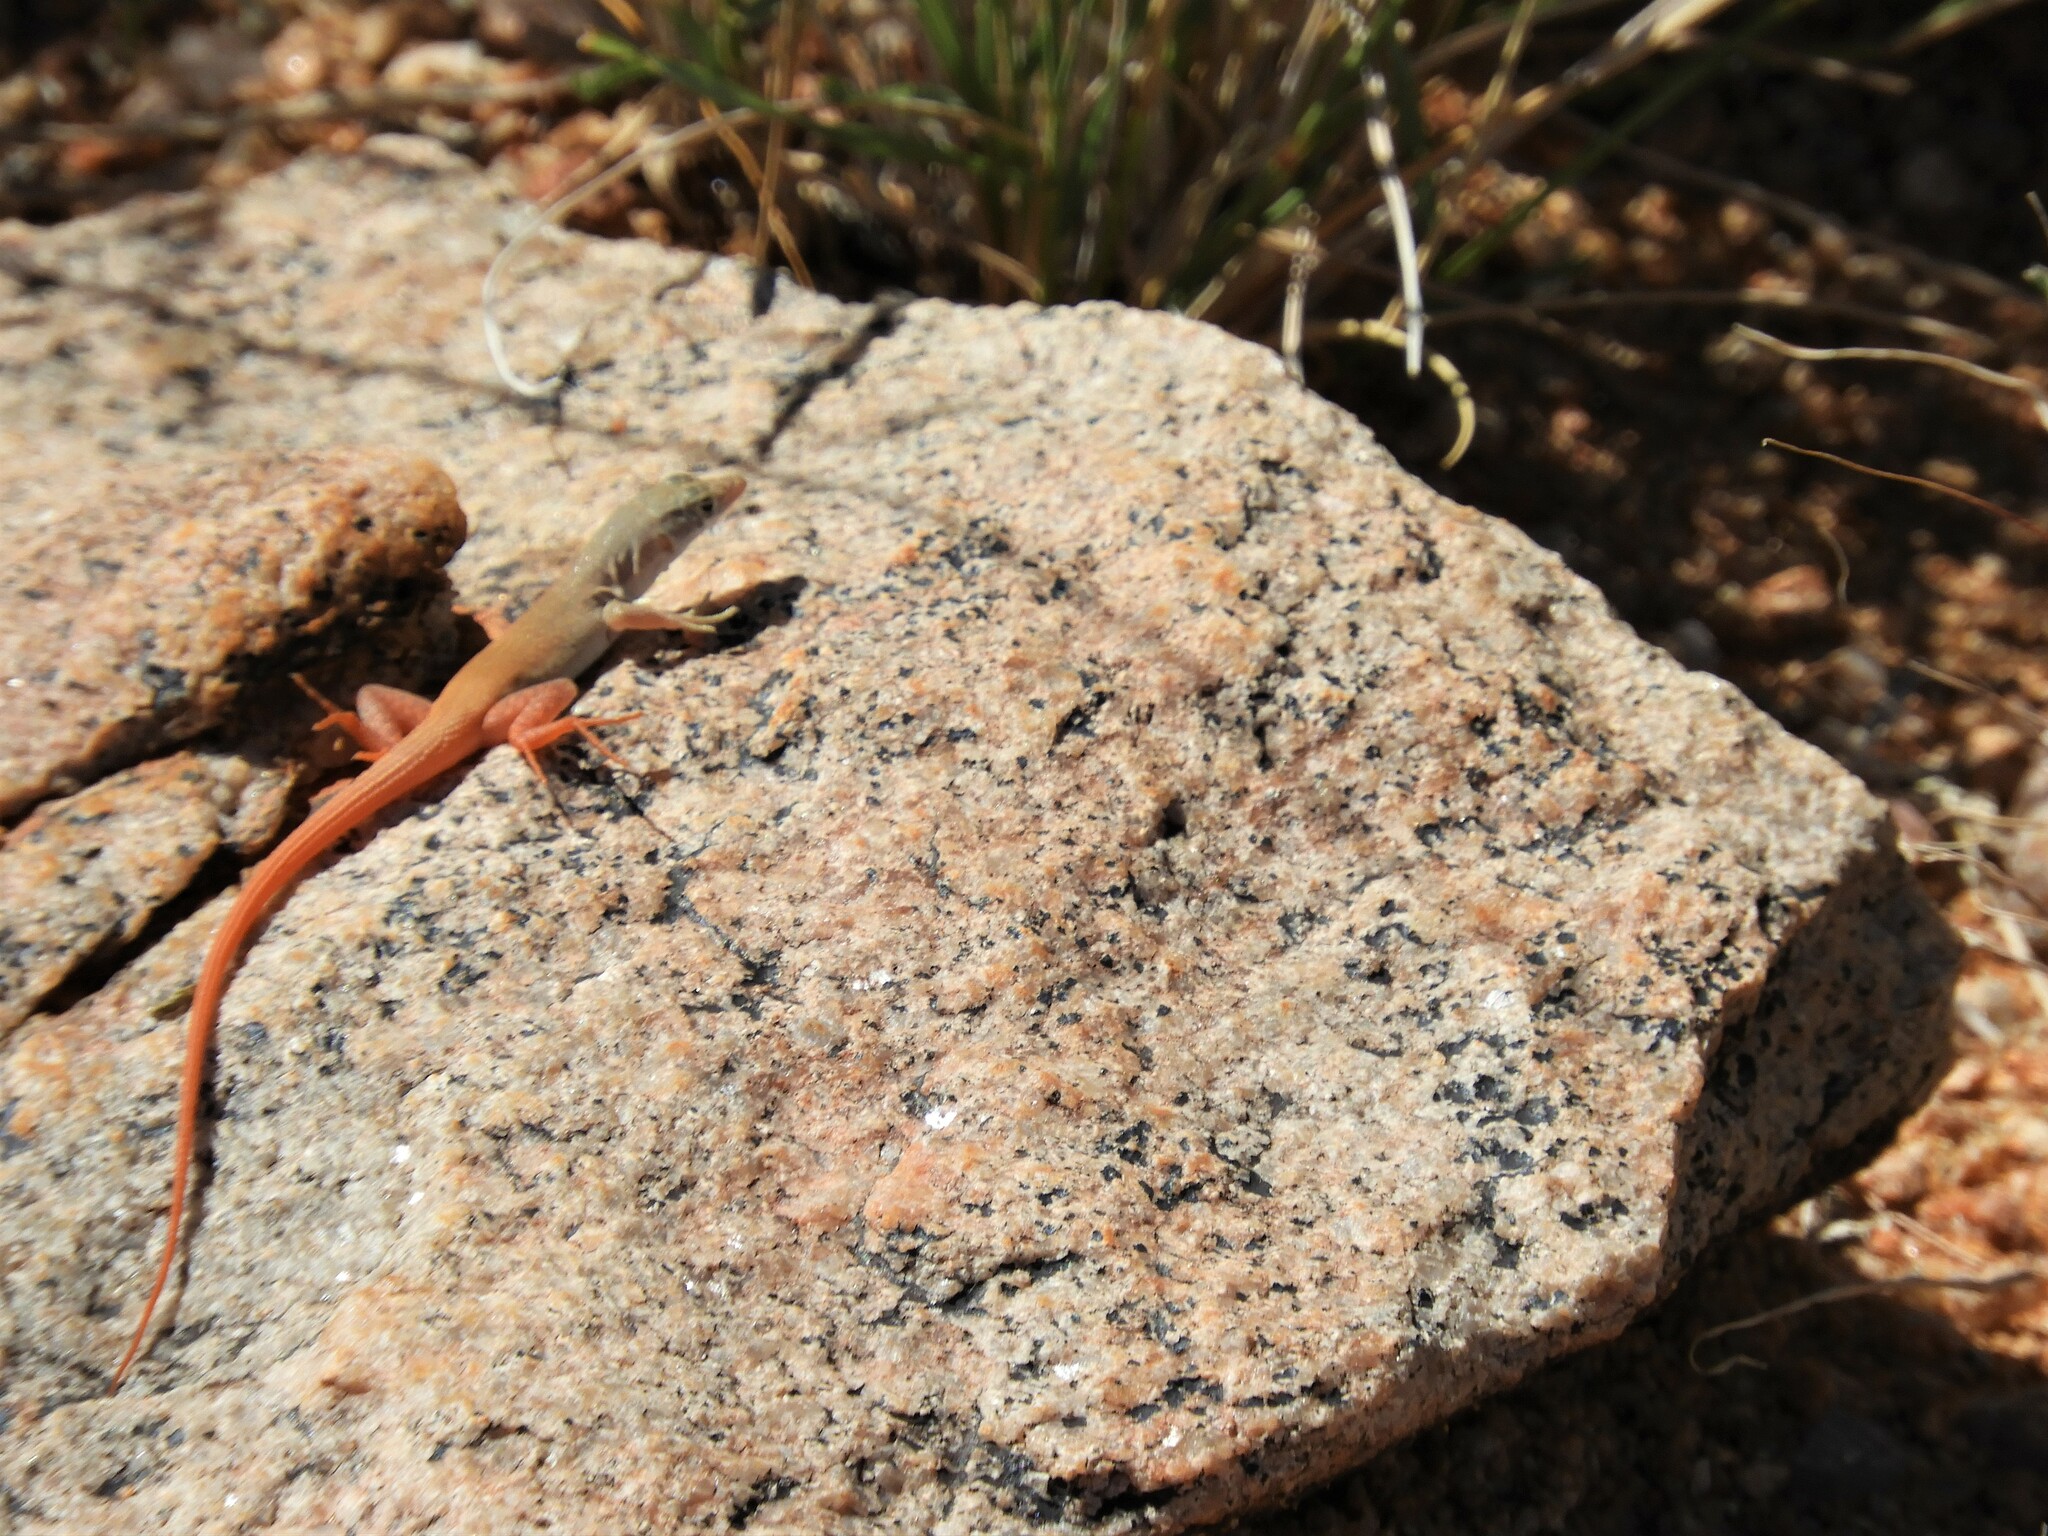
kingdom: Animalia
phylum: Chordata
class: Squamata
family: Lacertidae
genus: Pedioplanis
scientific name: Pedioplanis inornata
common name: Plain sand lizard
